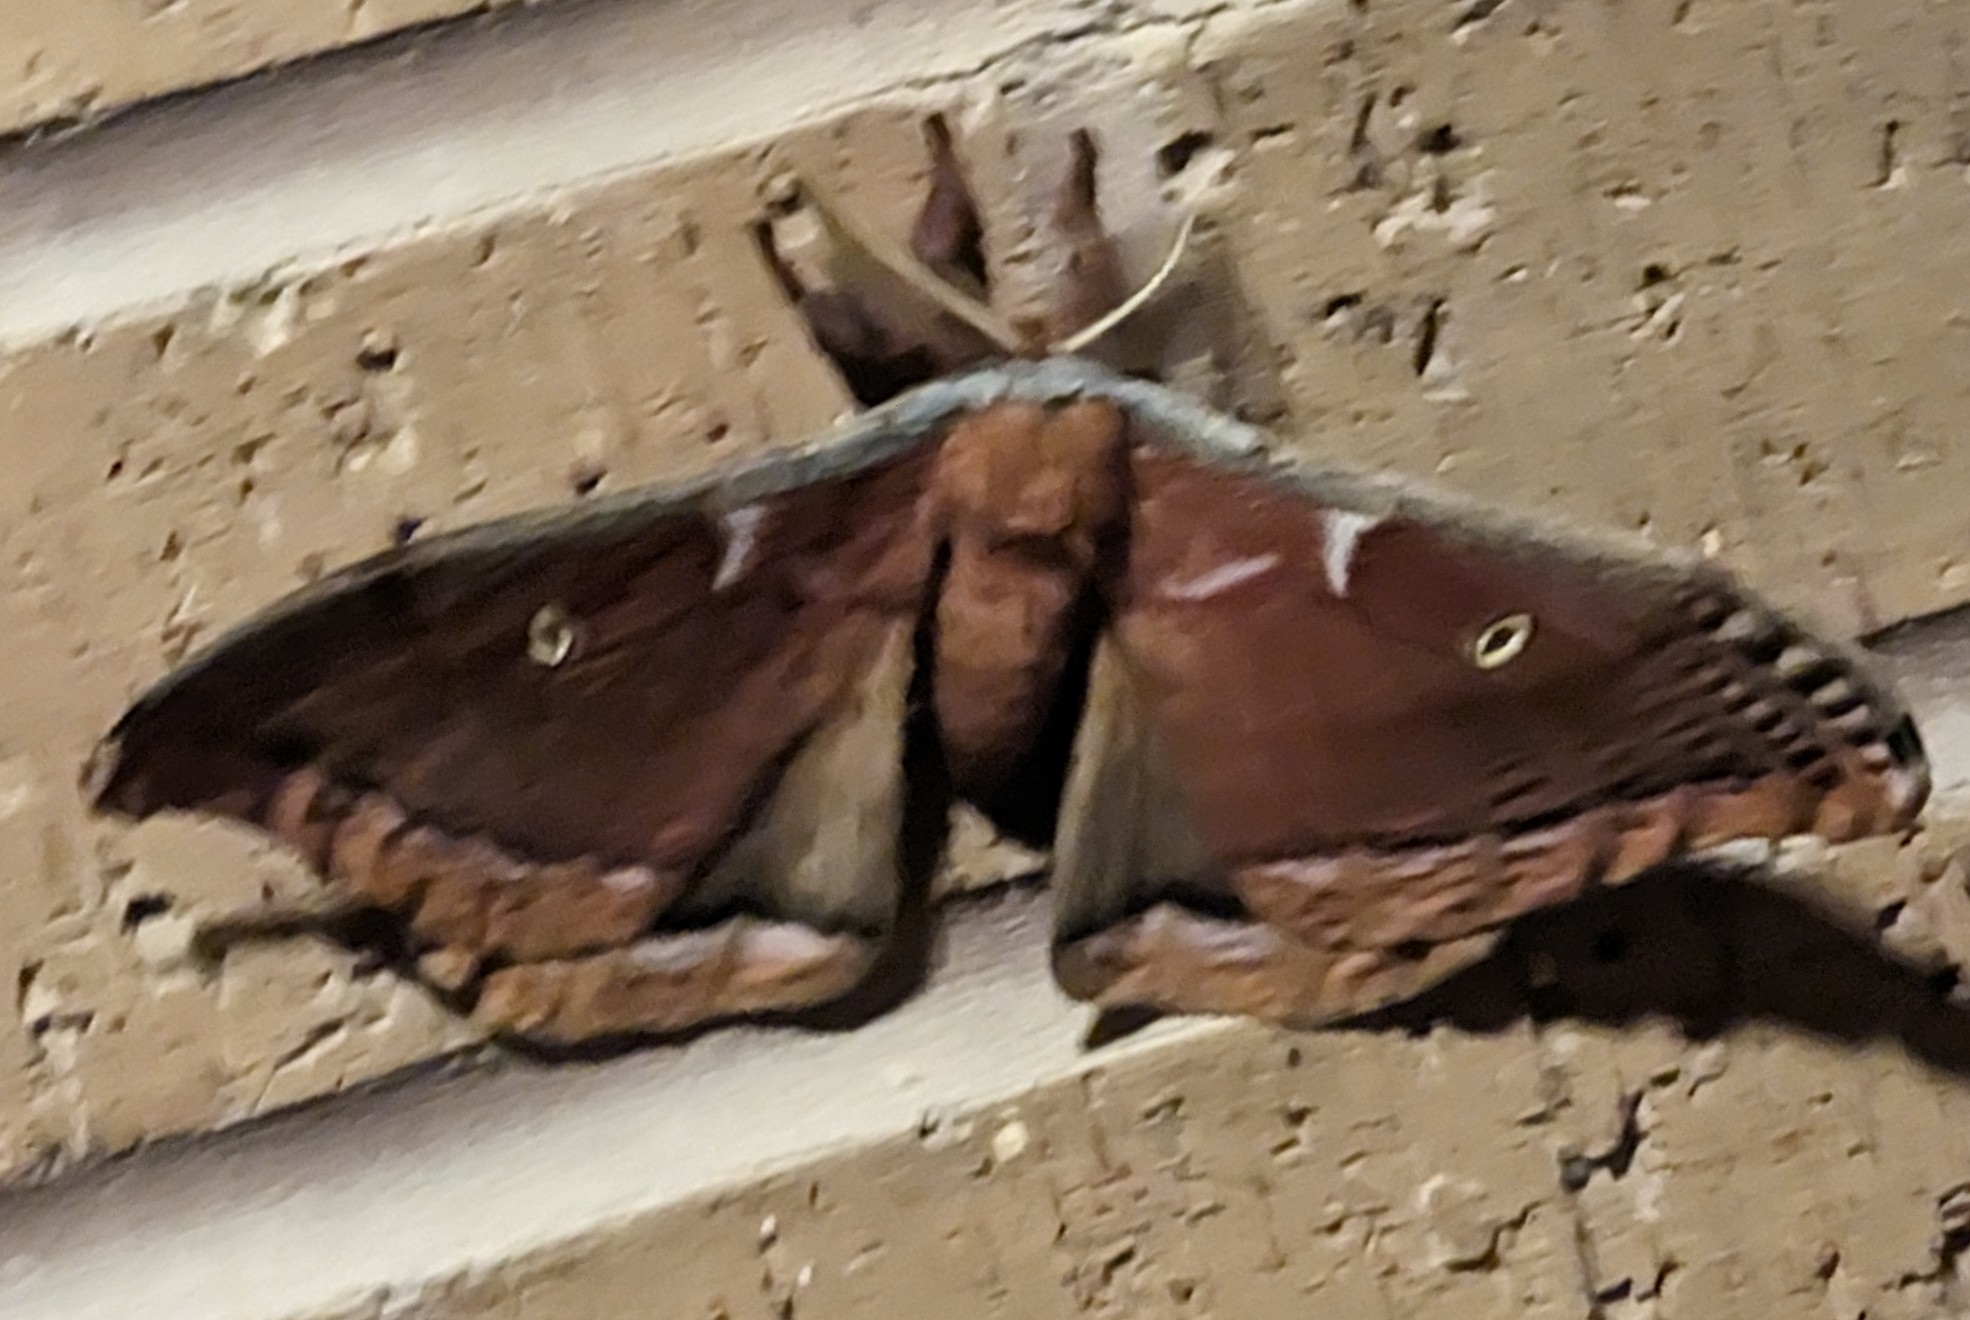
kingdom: Animalia
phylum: Arthropoda
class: Insecta
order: Lepidoptera
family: Saturniidae
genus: Antheraea
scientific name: Antheraea polyphemus
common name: Polyphemus moth
